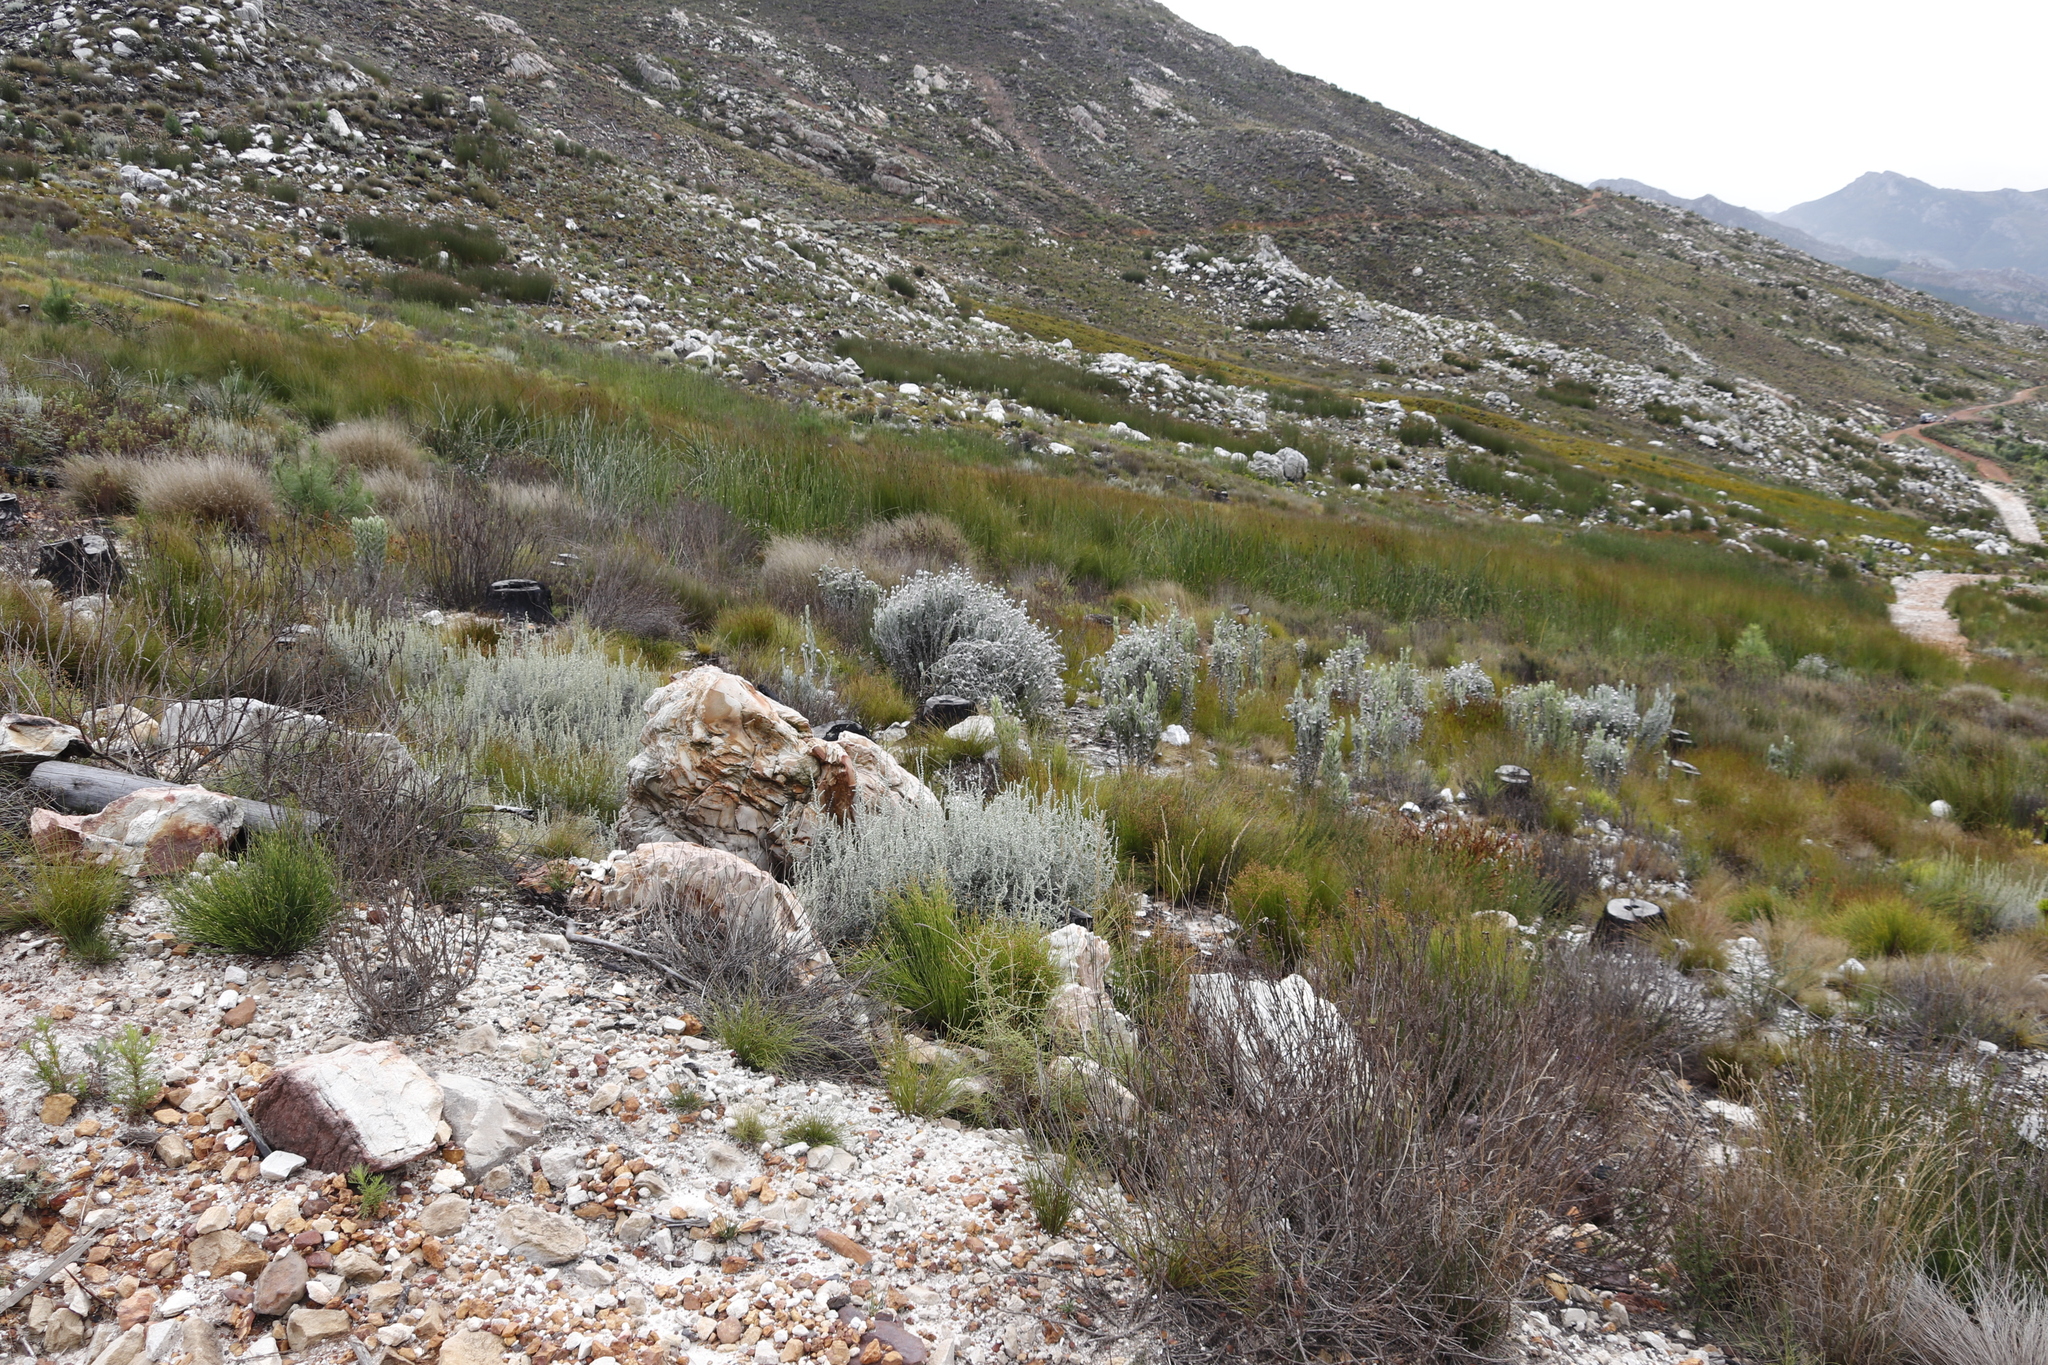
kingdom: Plantae
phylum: Tracheophyta
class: Magnoliopsida
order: Asterales
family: Asteraceae
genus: Syncarpha
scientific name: Syncarpha vestita
